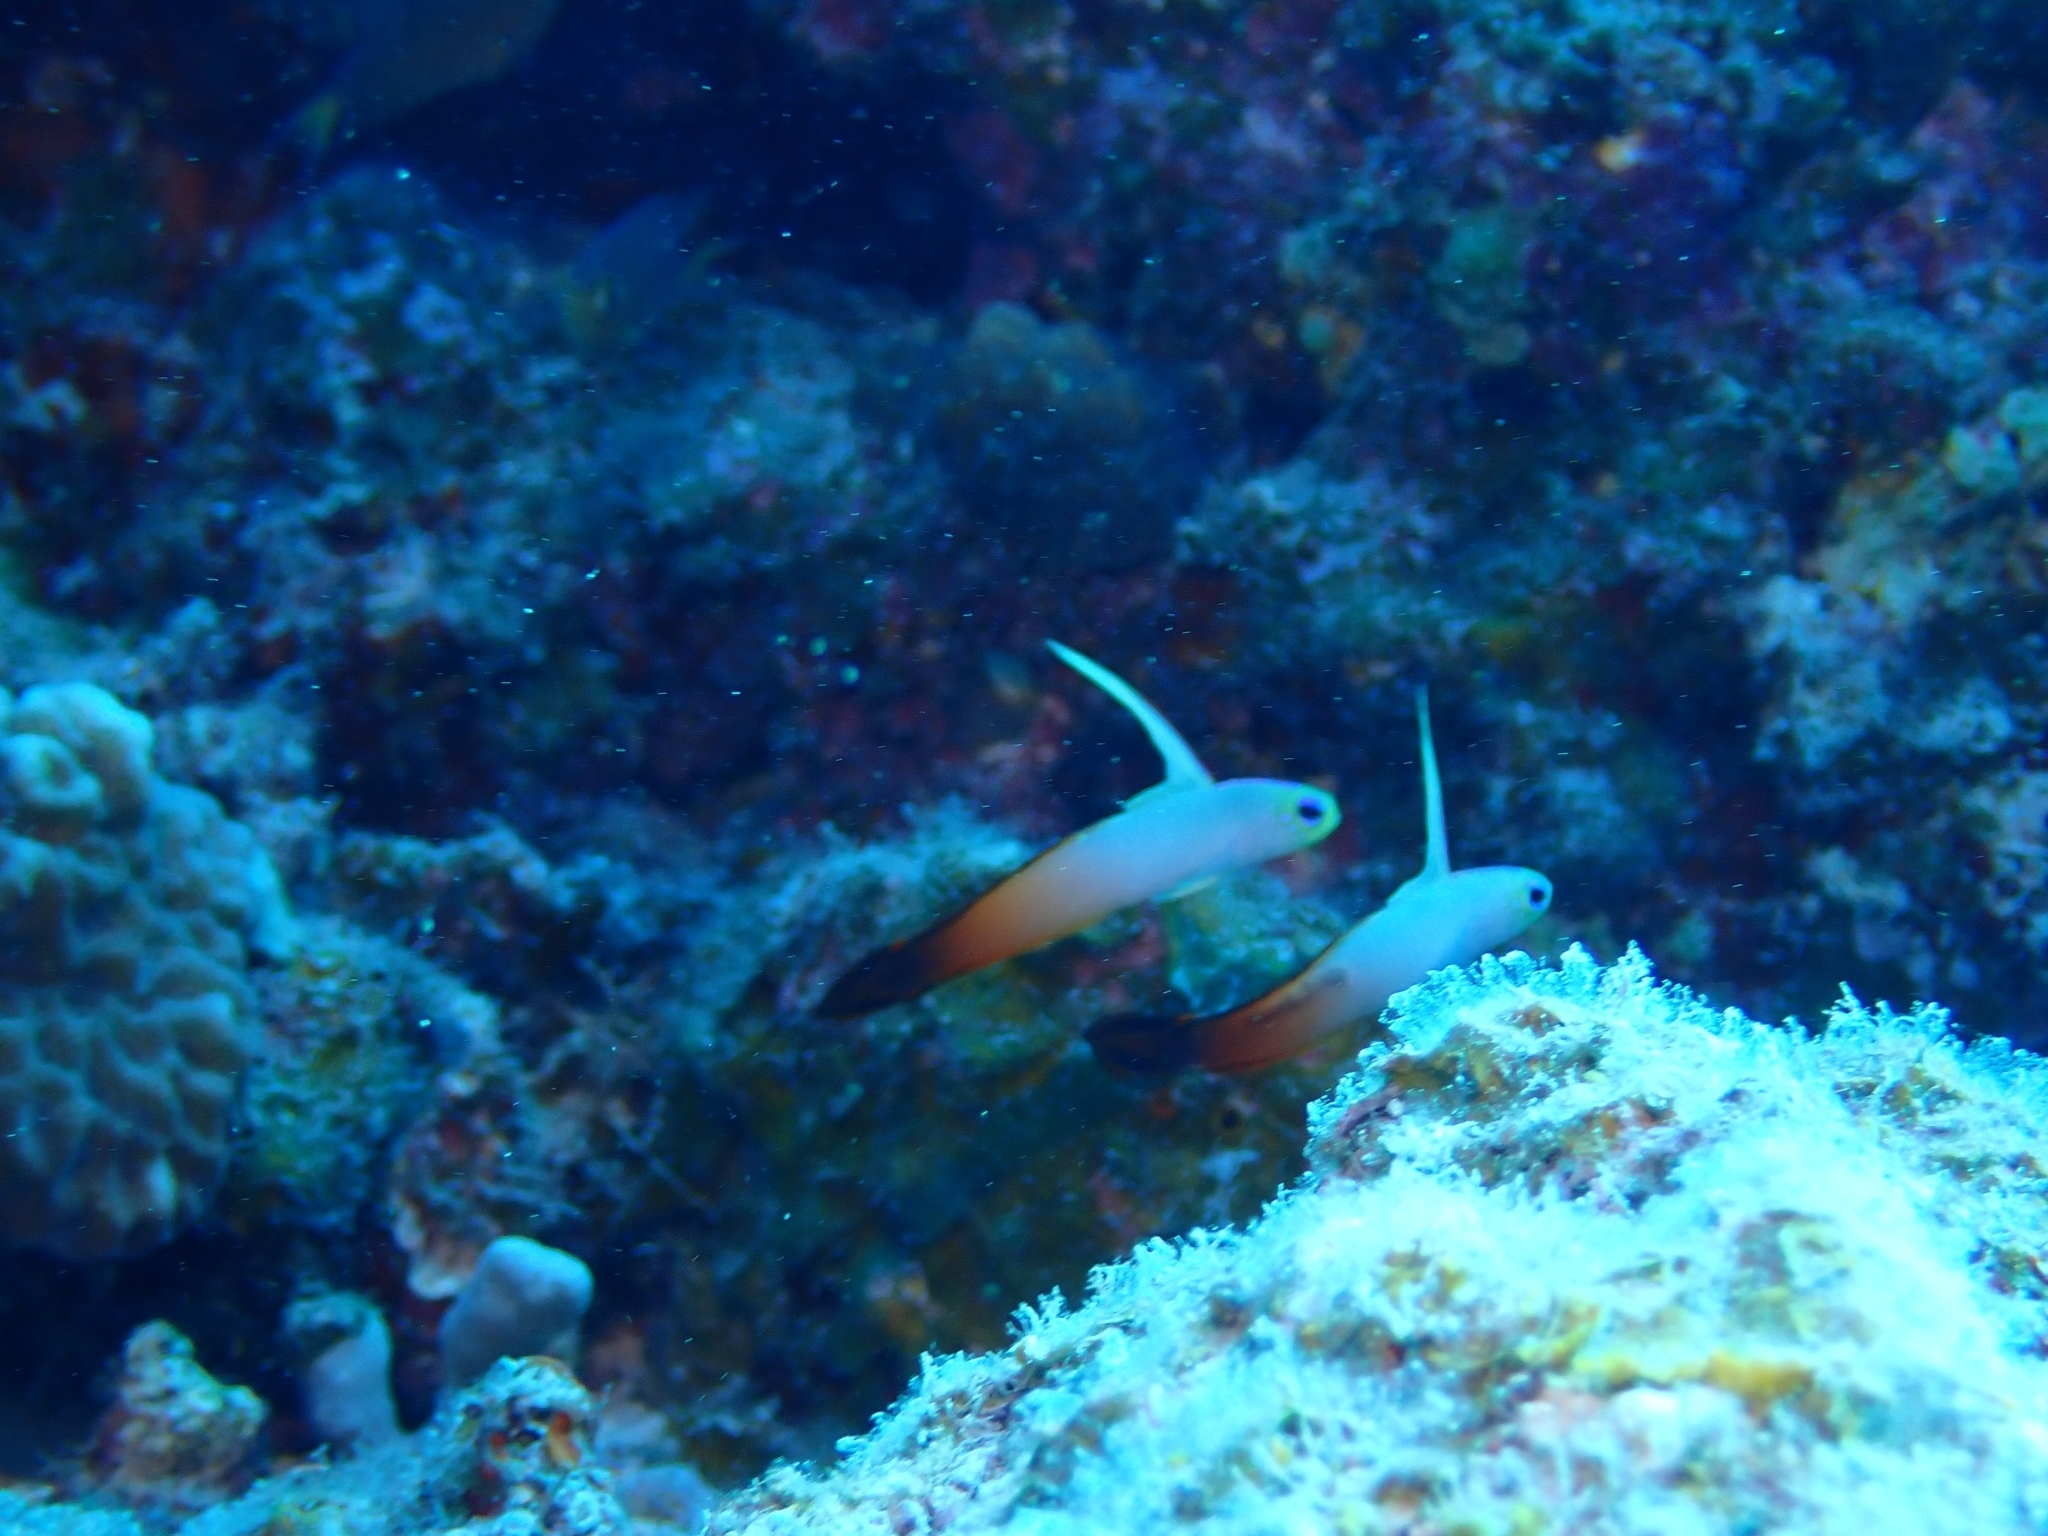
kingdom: Animalia
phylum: Chordata
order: Perciformes
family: Microdesmidae
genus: Nemateleotris
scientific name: Nemateleotris magnifica
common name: Fire goby
